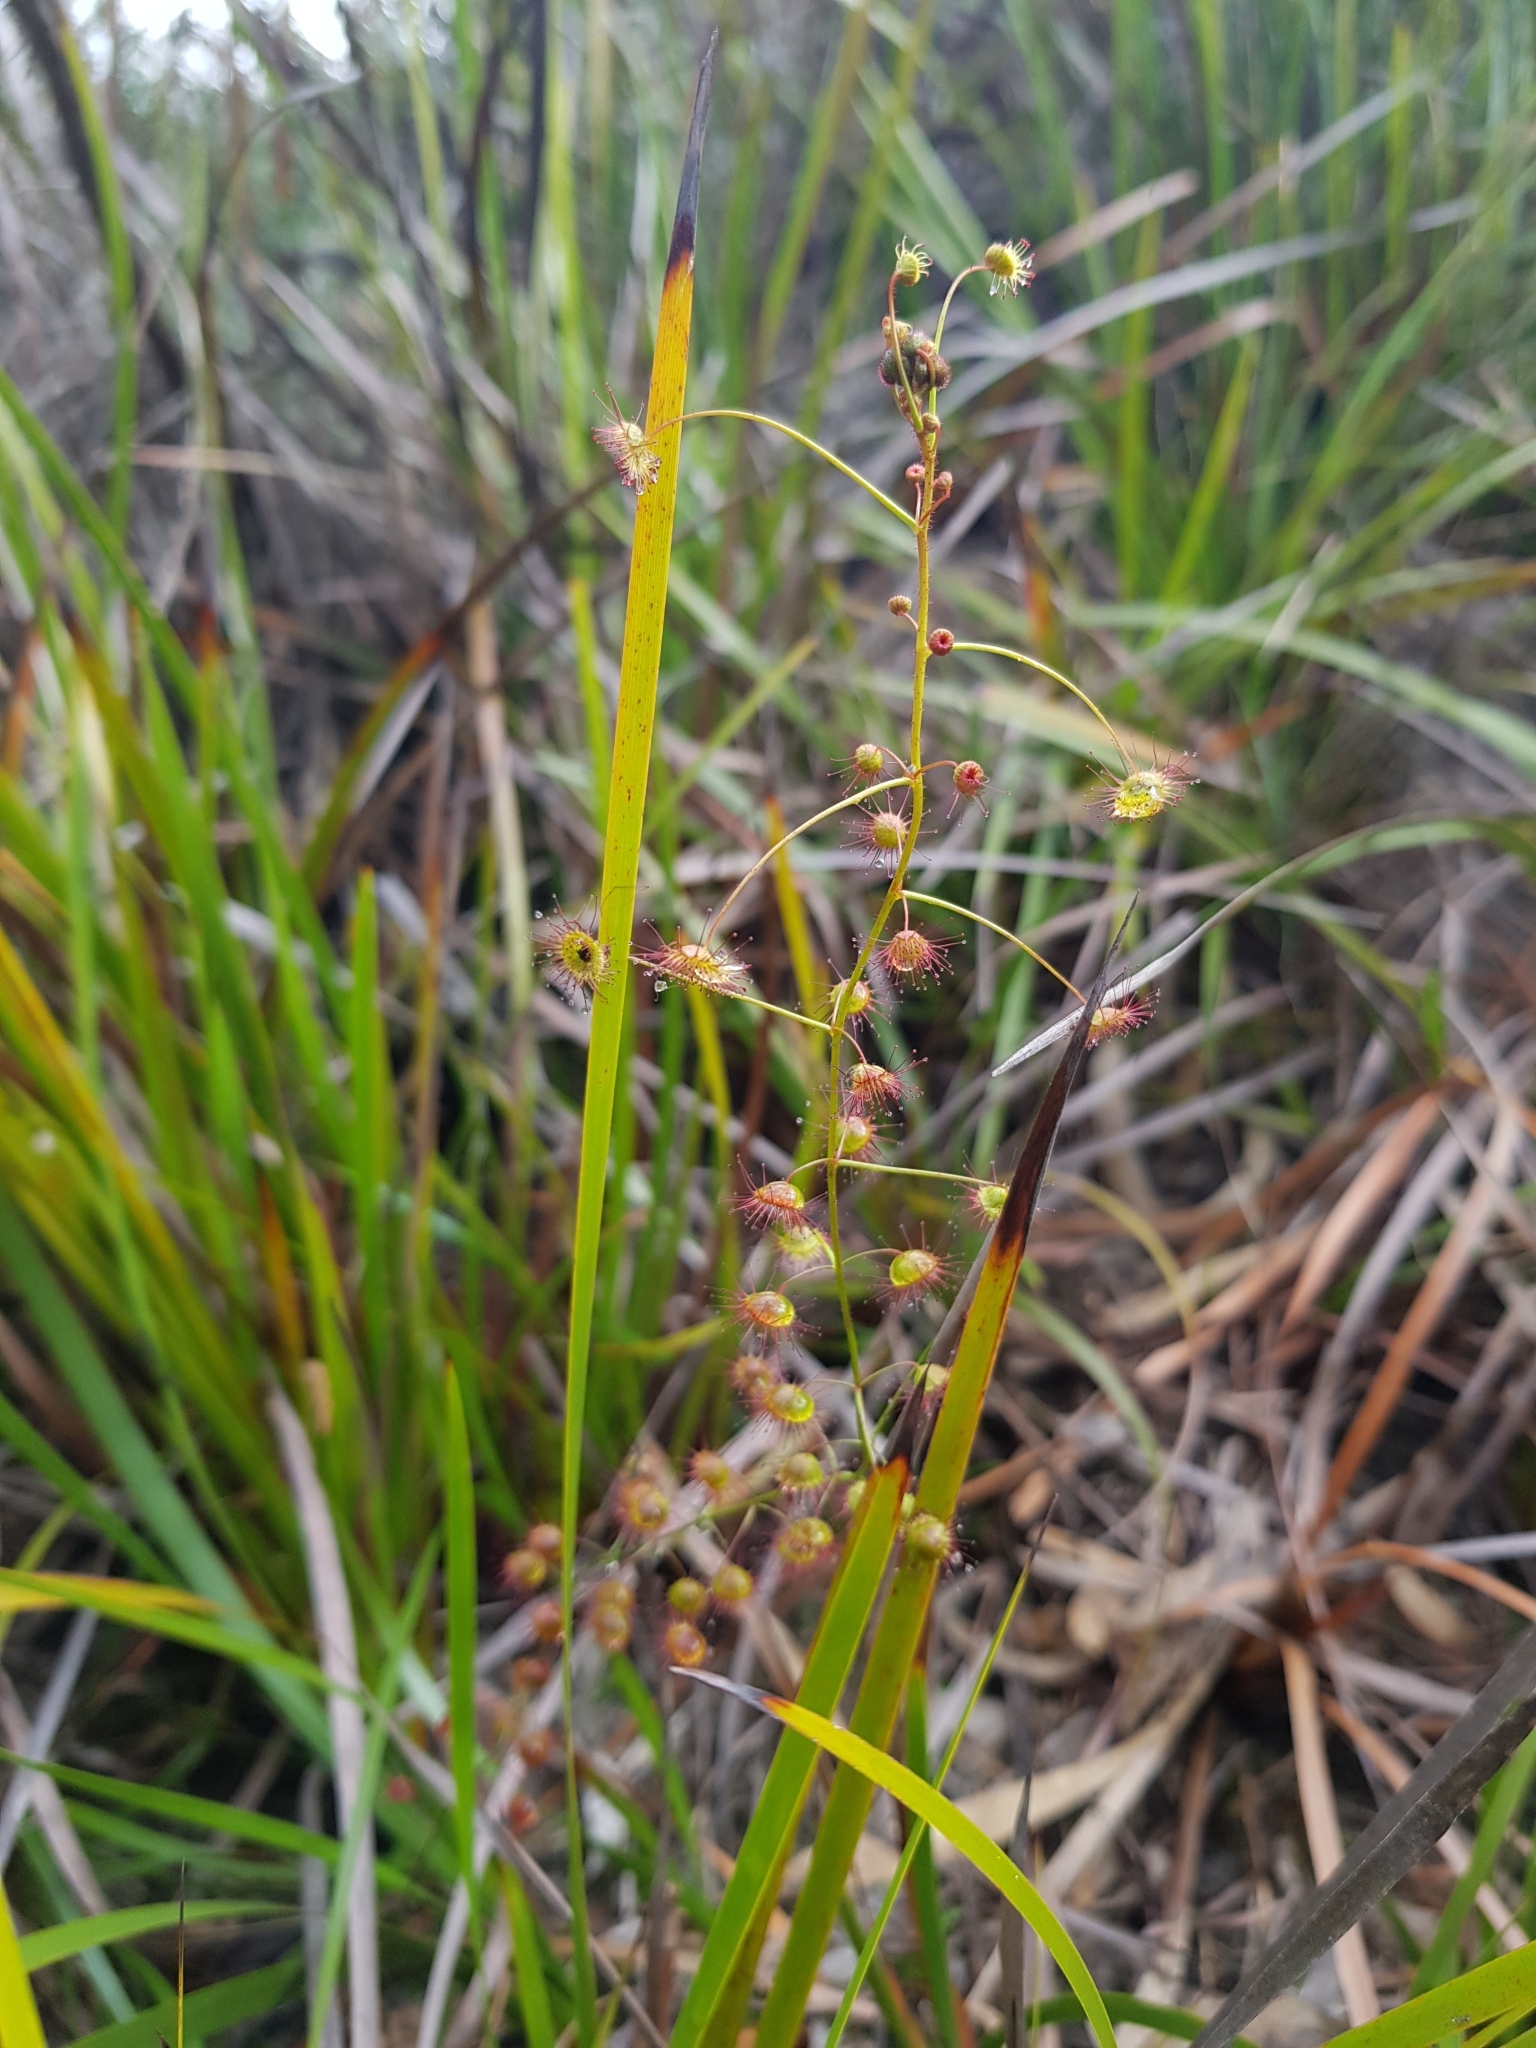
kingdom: Plantae
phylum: Tracheophyta
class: Magnoliopsida
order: Caryophyllales
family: Droseraceae
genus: Drosera
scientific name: Drosera planchonii
